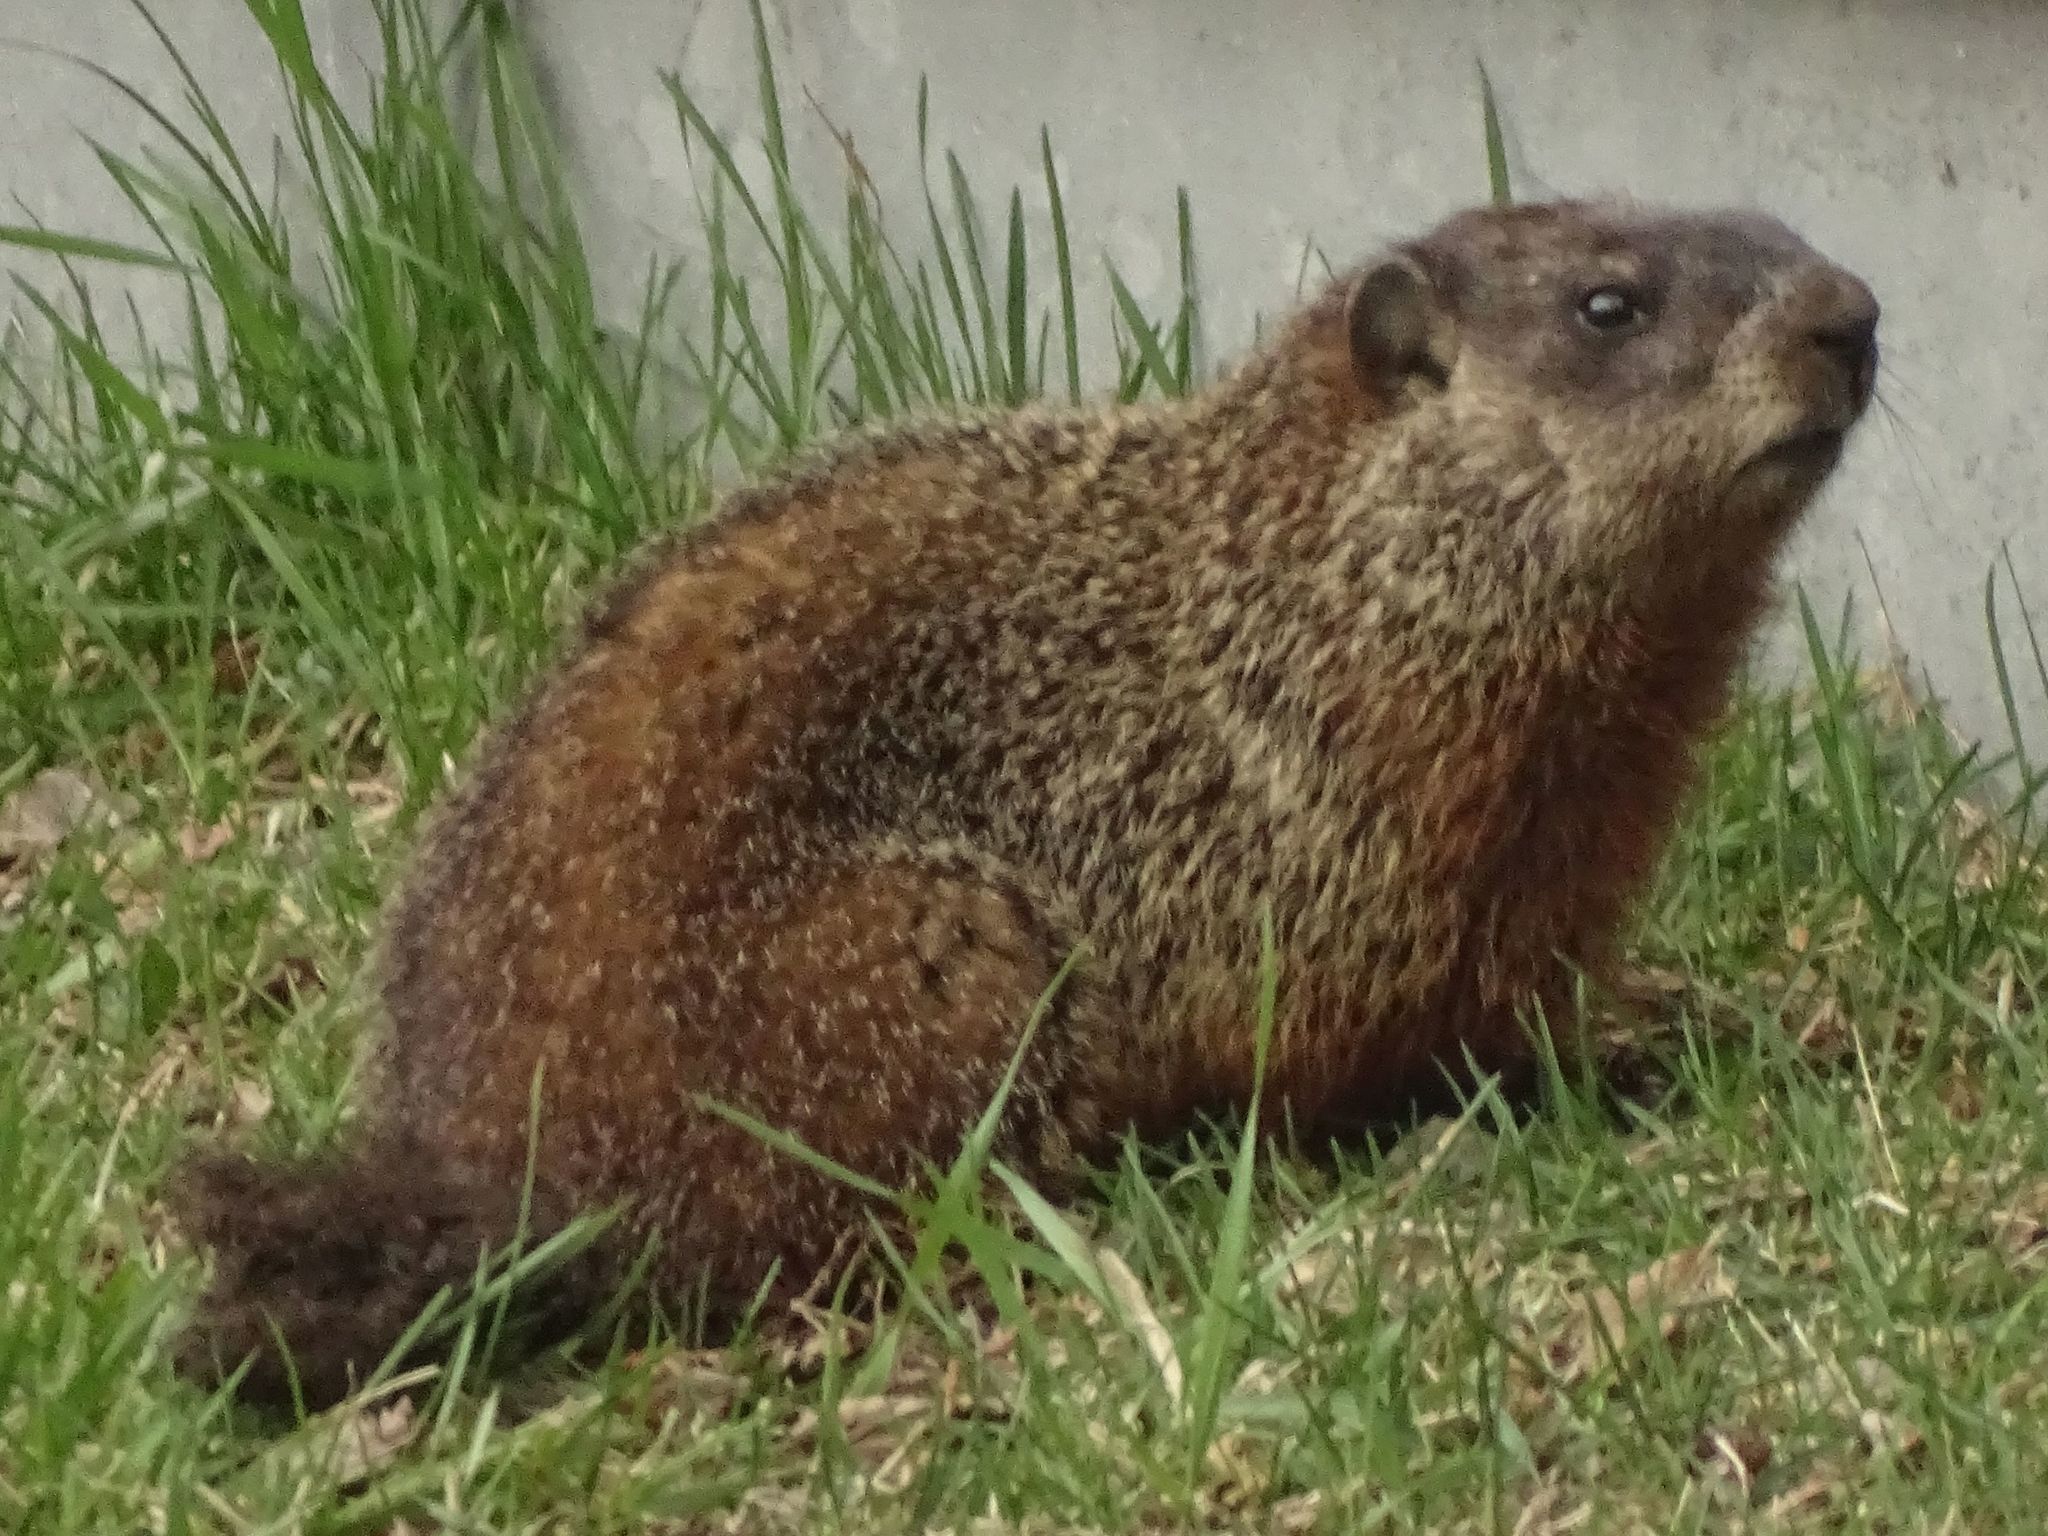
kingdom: Animalia
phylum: Chordata
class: Mammalia
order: Rodentia
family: Sciuridae
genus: Marmota
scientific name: Marmota monax
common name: Groundhog
